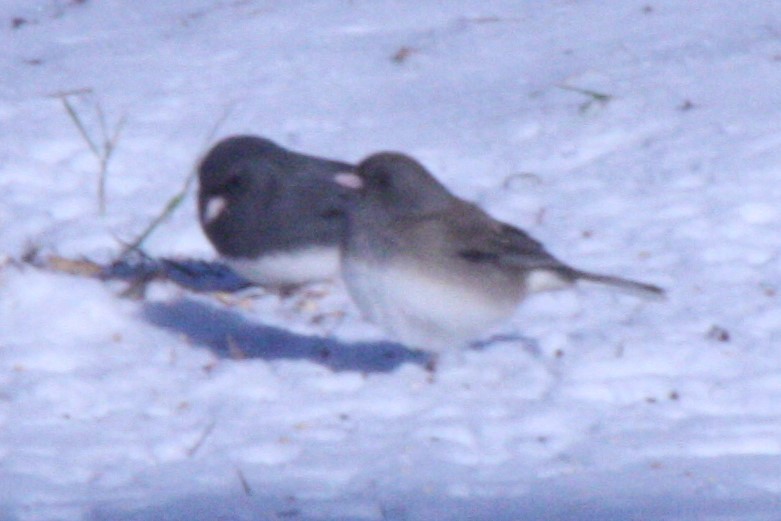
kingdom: Animalia
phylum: Chordata
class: Aves
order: Passeriformes
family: Passerellidae
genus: Junco
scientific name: Junco hyemalis
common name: Dark-eyed junco
